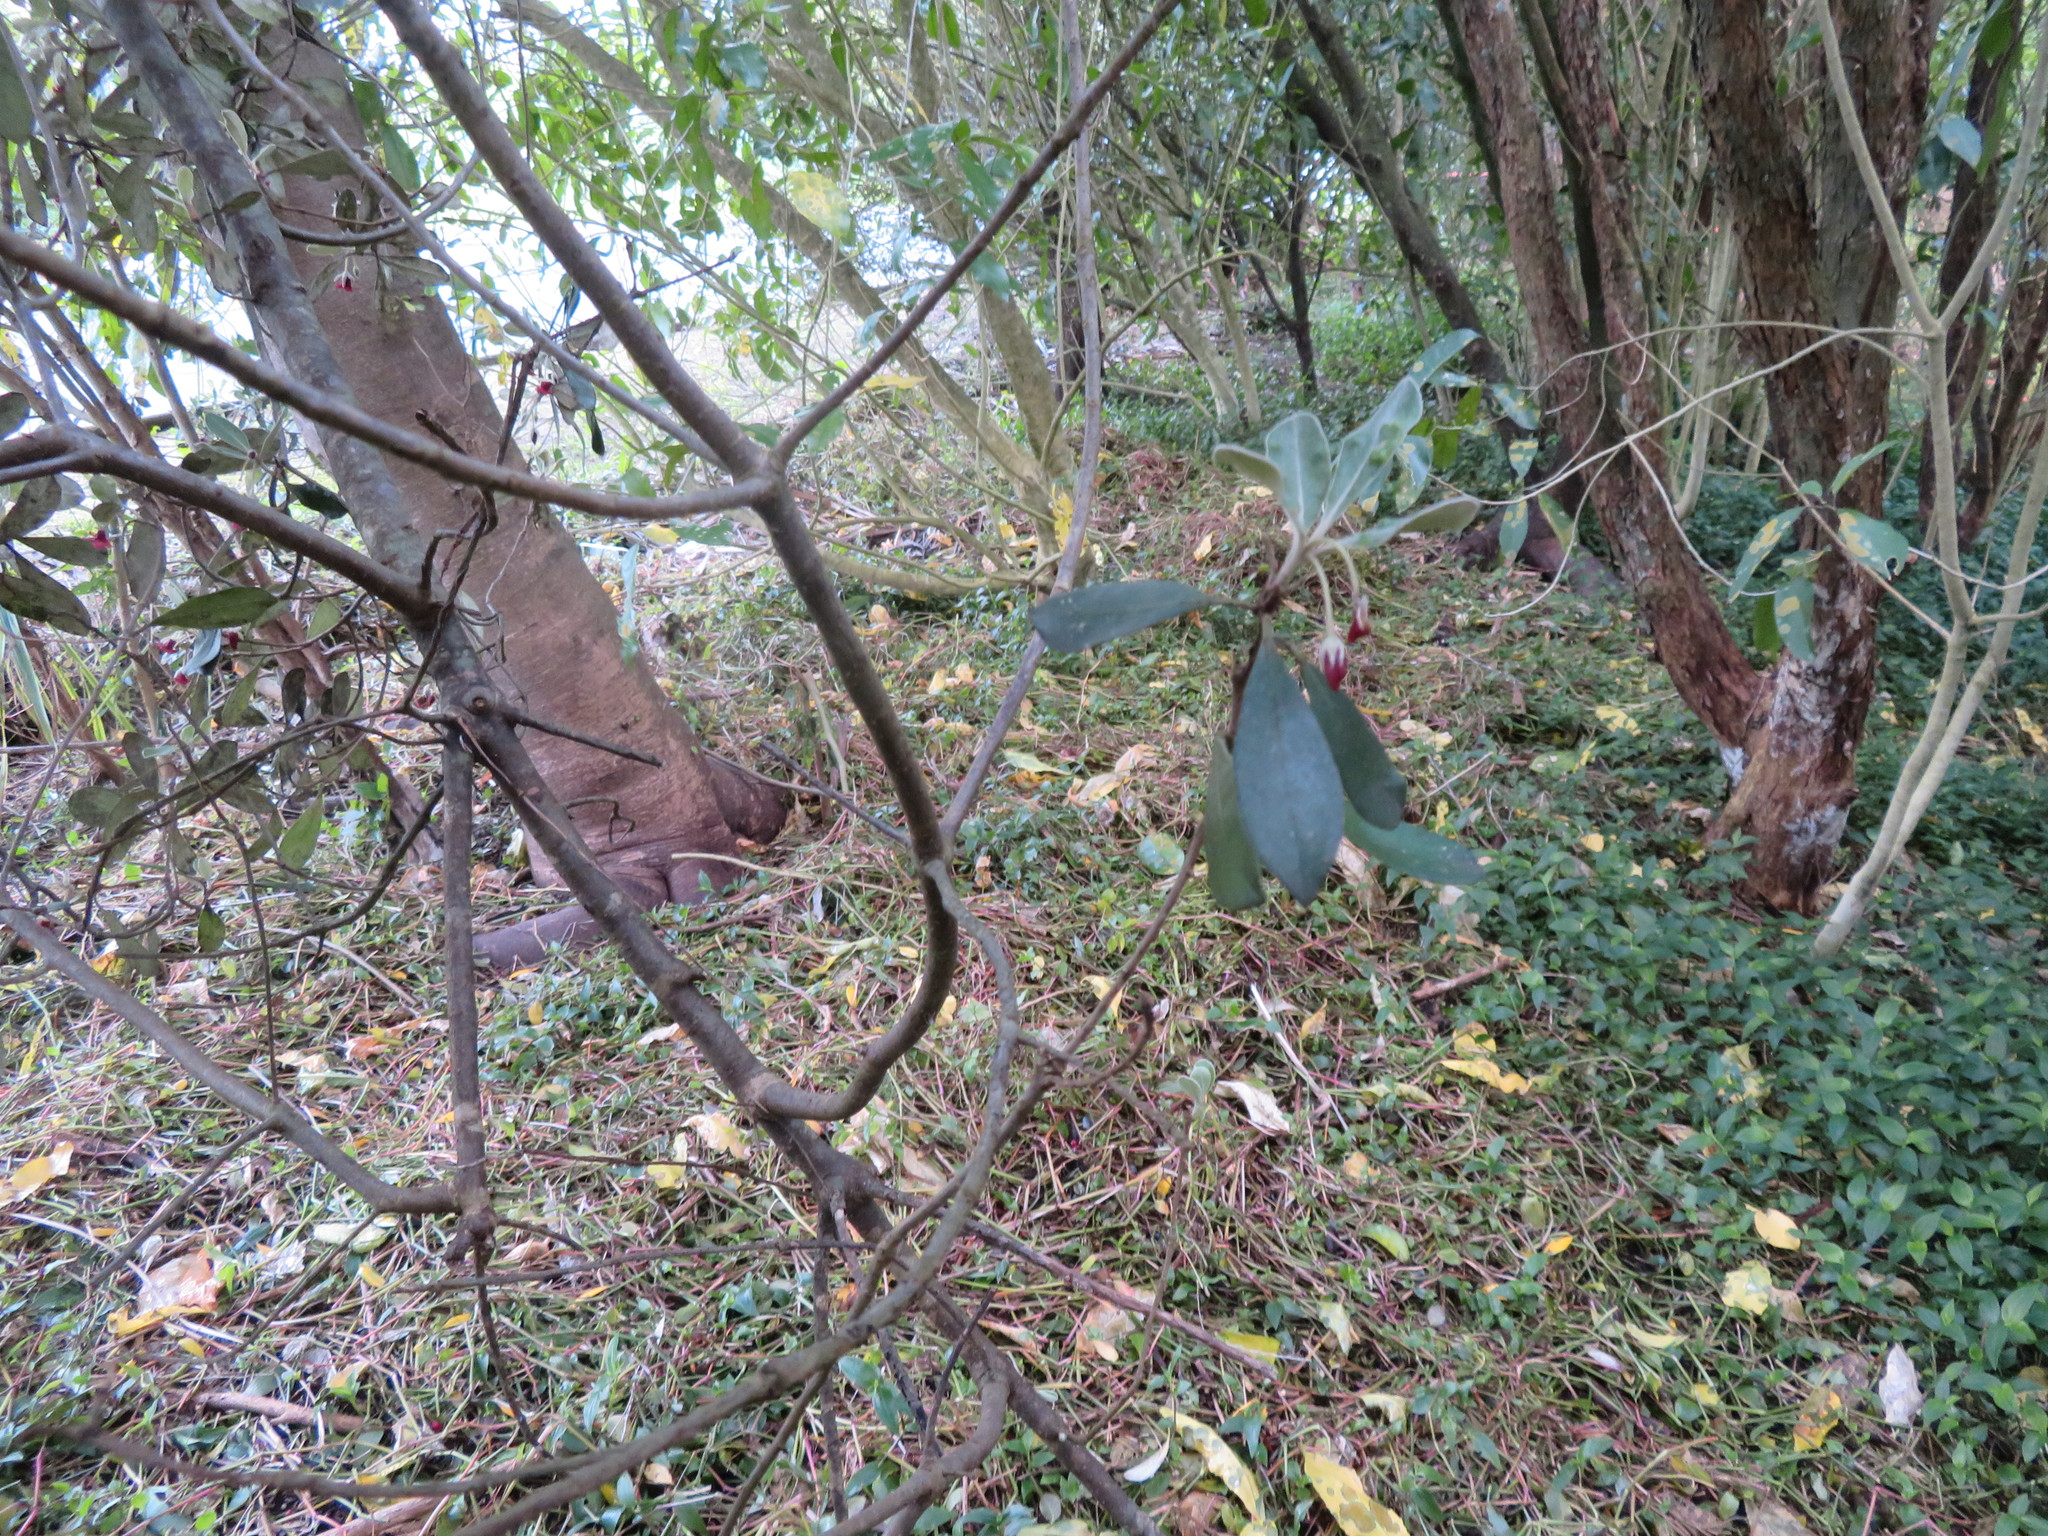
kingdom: Plantae
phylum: Tracheophyta
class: Magnoliopsida
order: Apiales
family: Pittosporaceae
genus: Pittosporum
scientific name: Pittosporum crassifolium
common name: Karo
